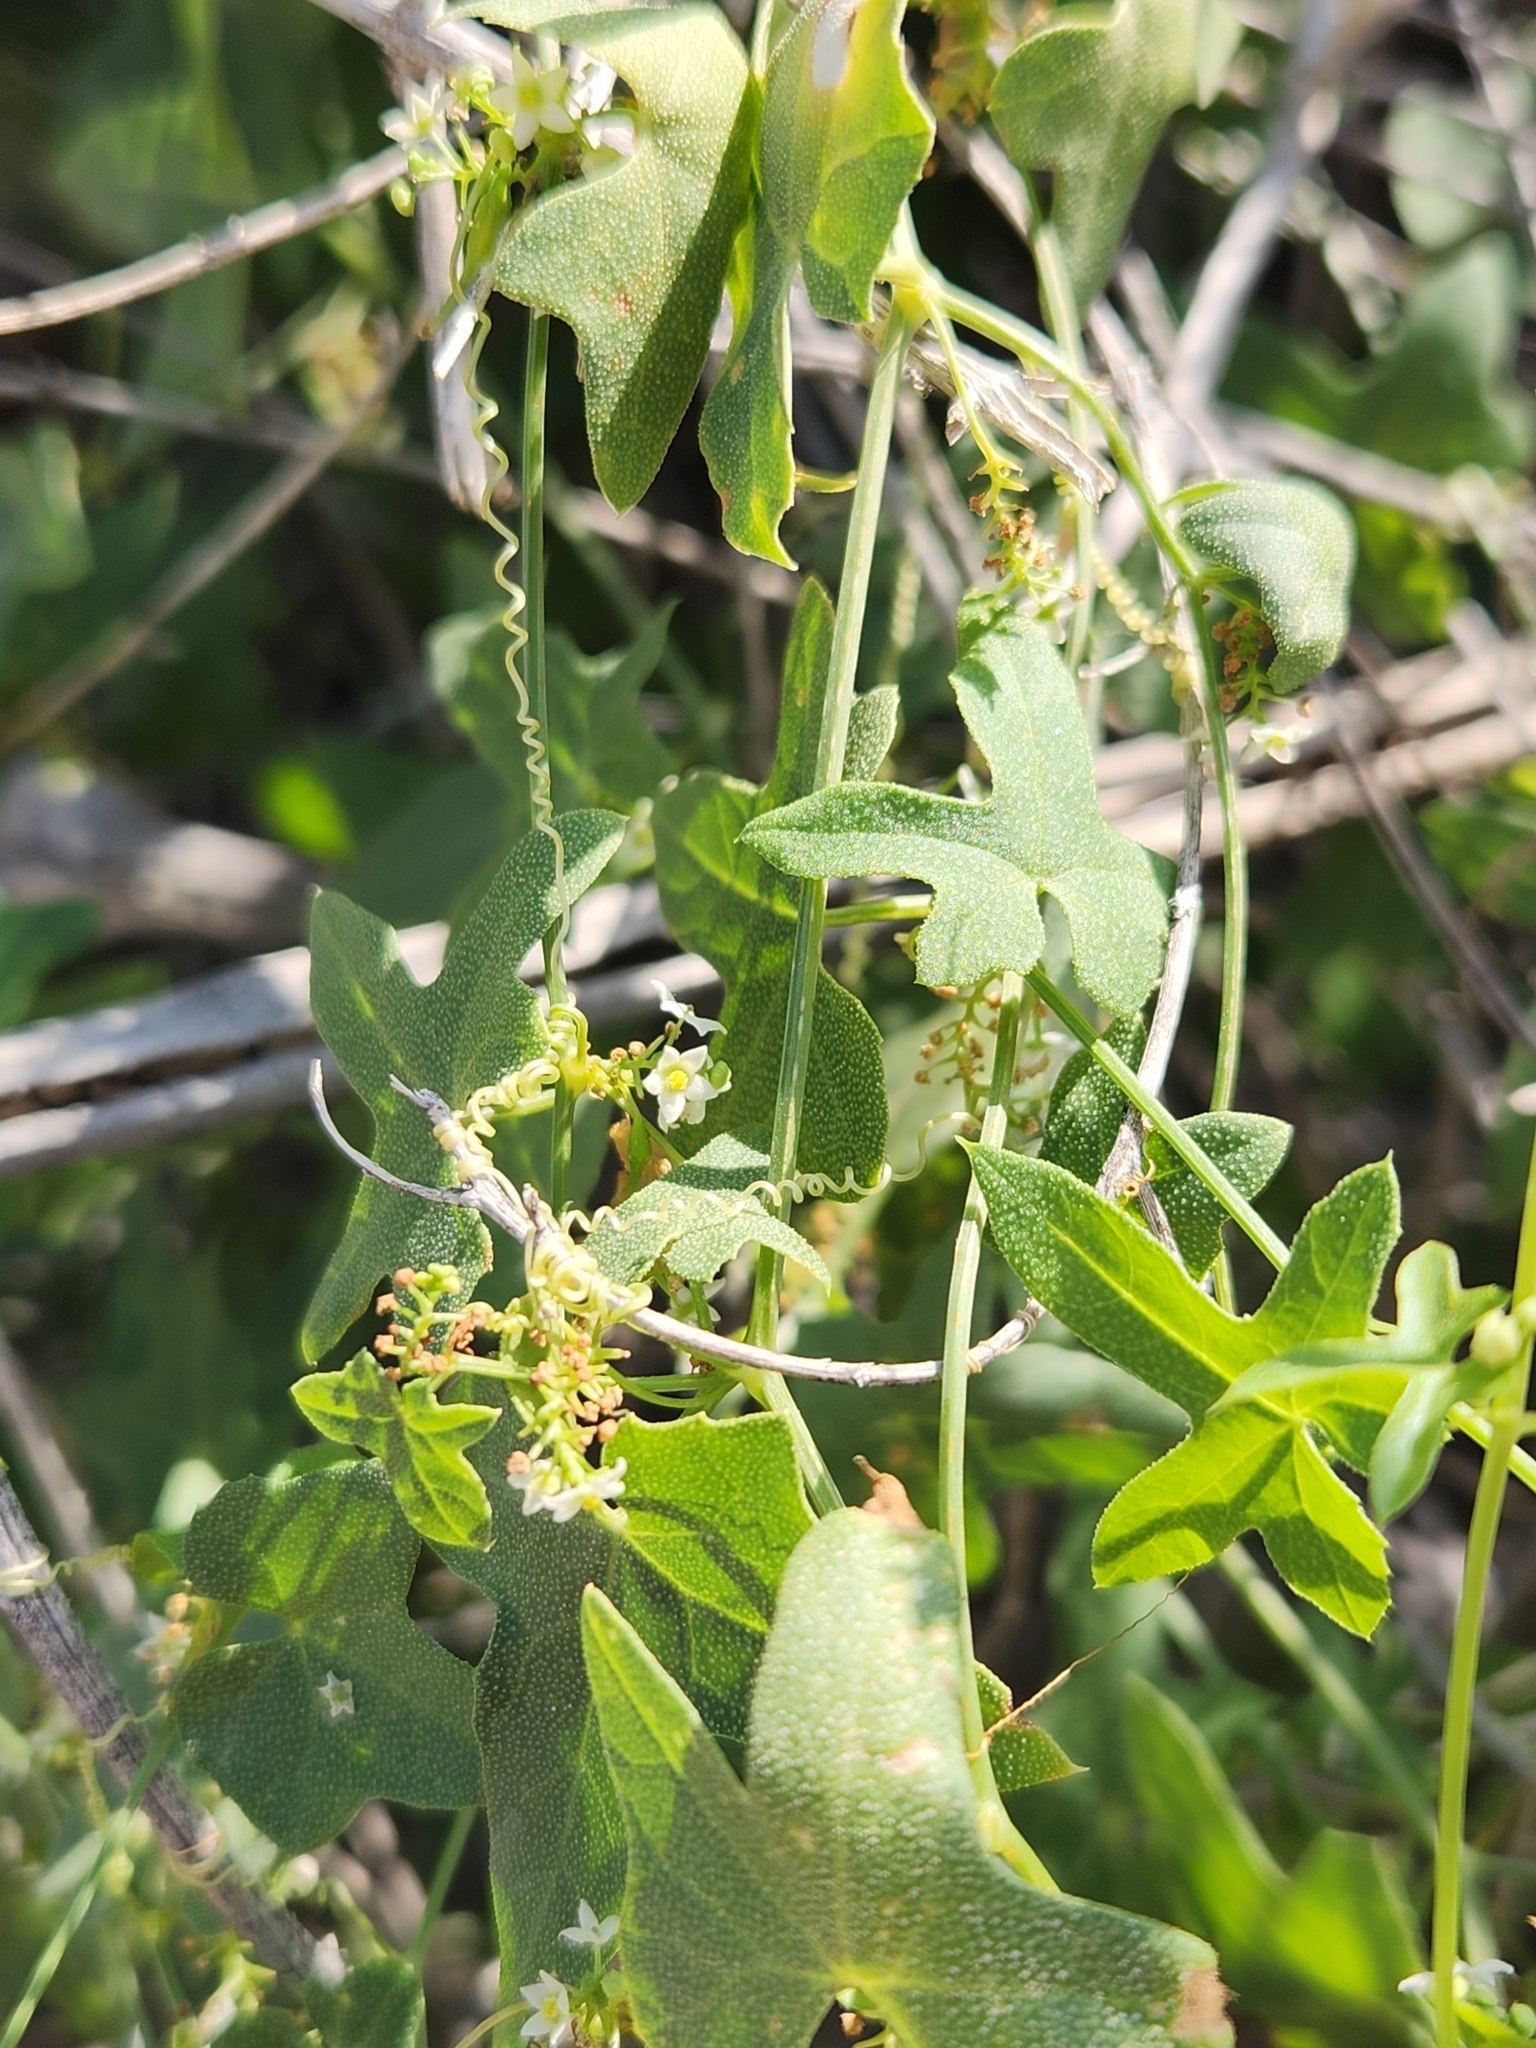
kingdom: Plantae
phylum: Tracheophyta
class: Magnoliopsida
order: Cucurbitales
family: Cucurbitaceae
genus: Echinopepon
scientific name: Echinopepon bigelovii
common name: Desert starvine
